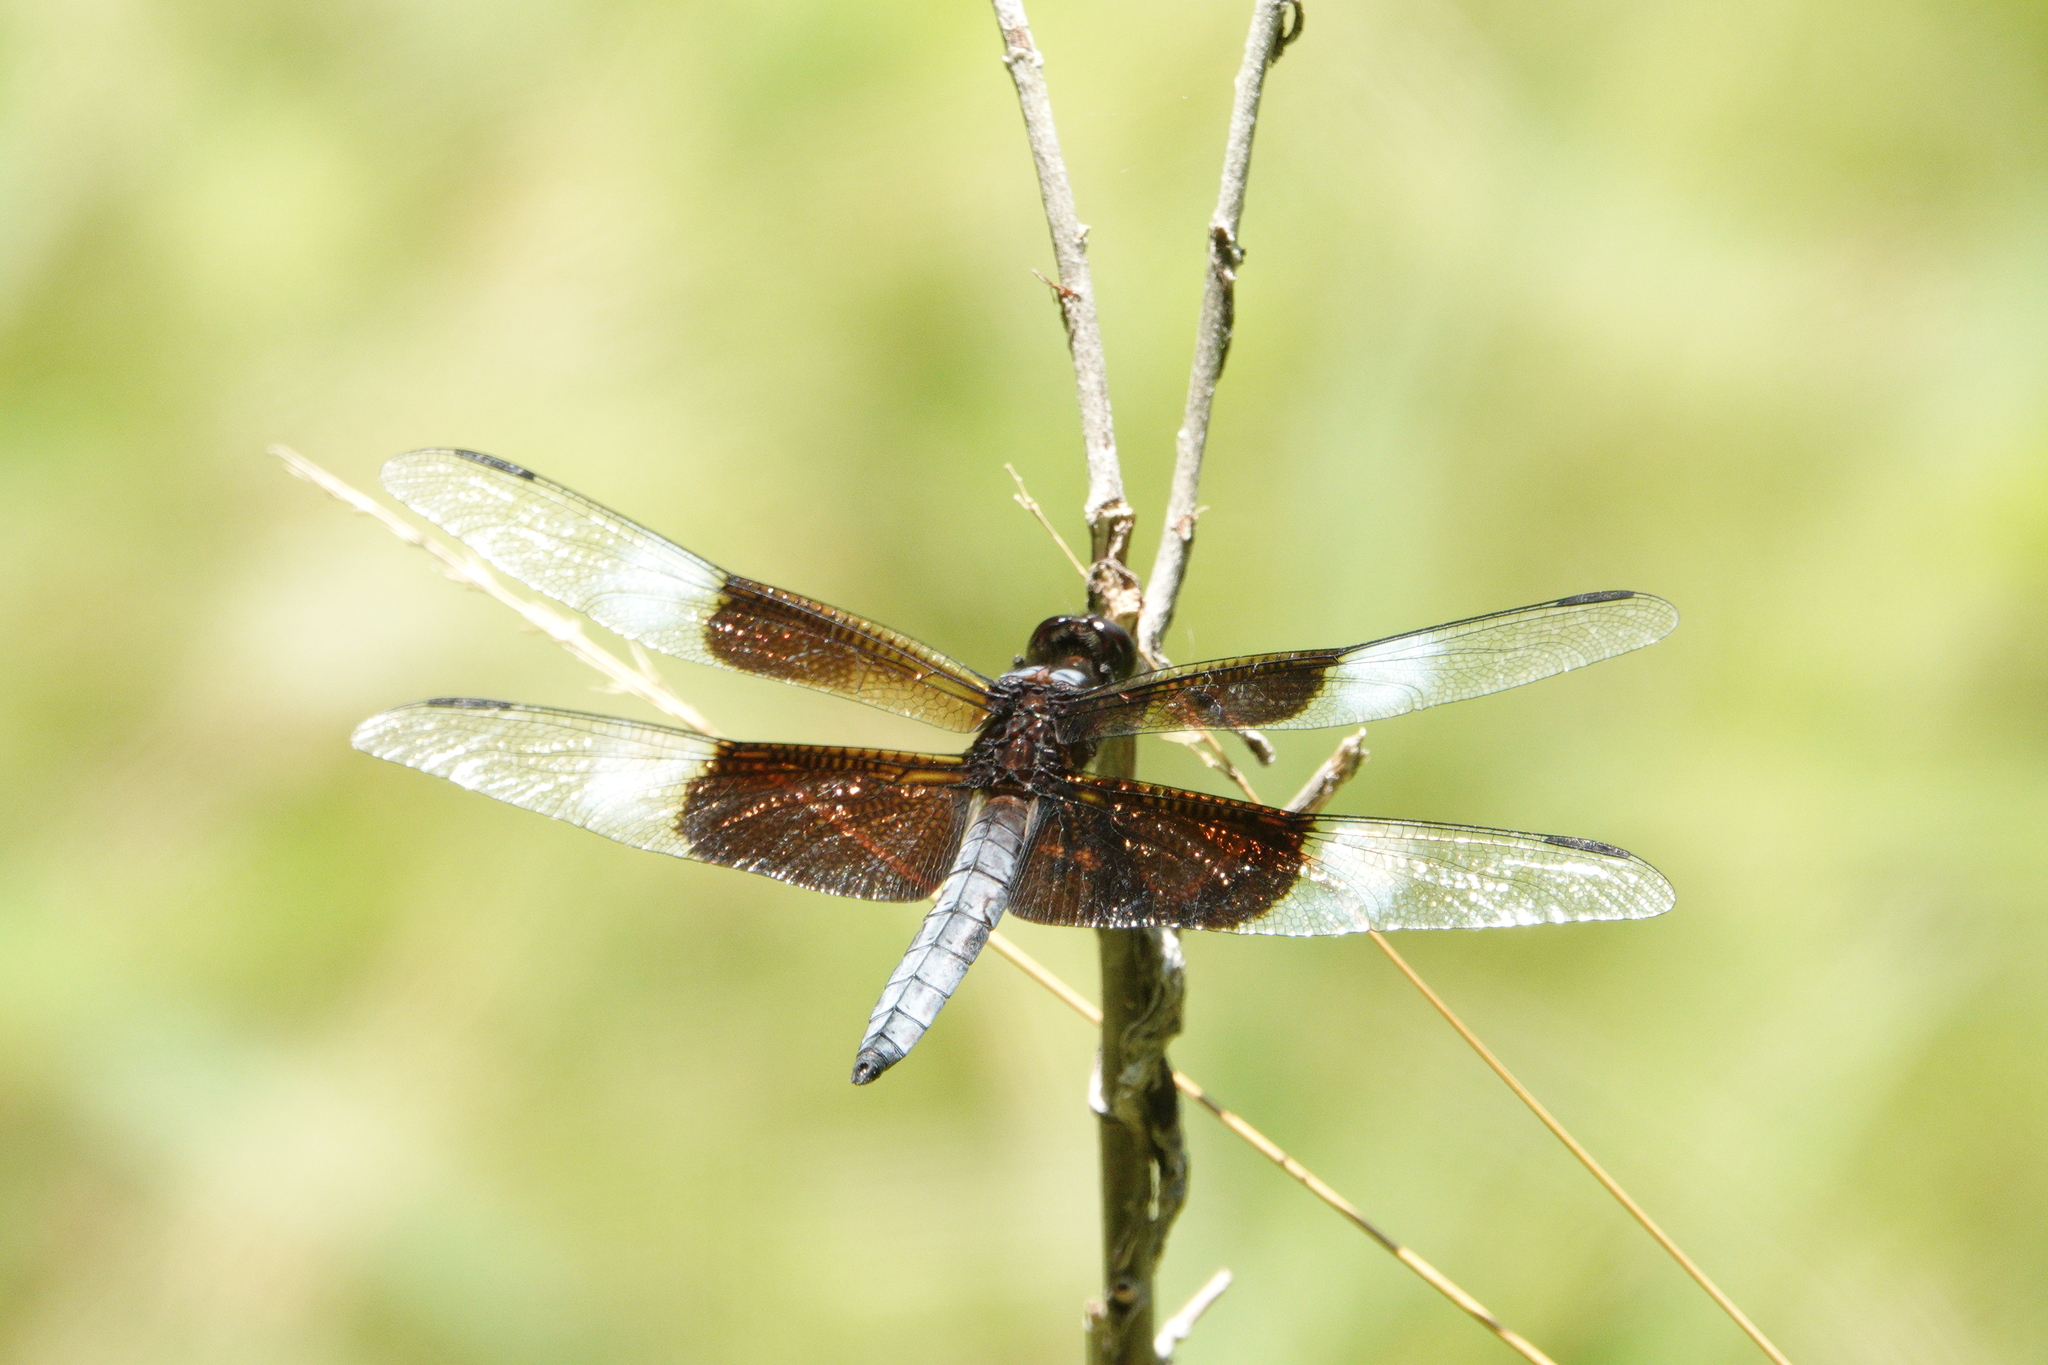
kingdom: Animalia
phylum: Arthropoda
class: Insecta
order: Odonata
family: Libellulidae
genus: Libellula
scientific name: Libellula luctuosa
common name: Widow skimmer
